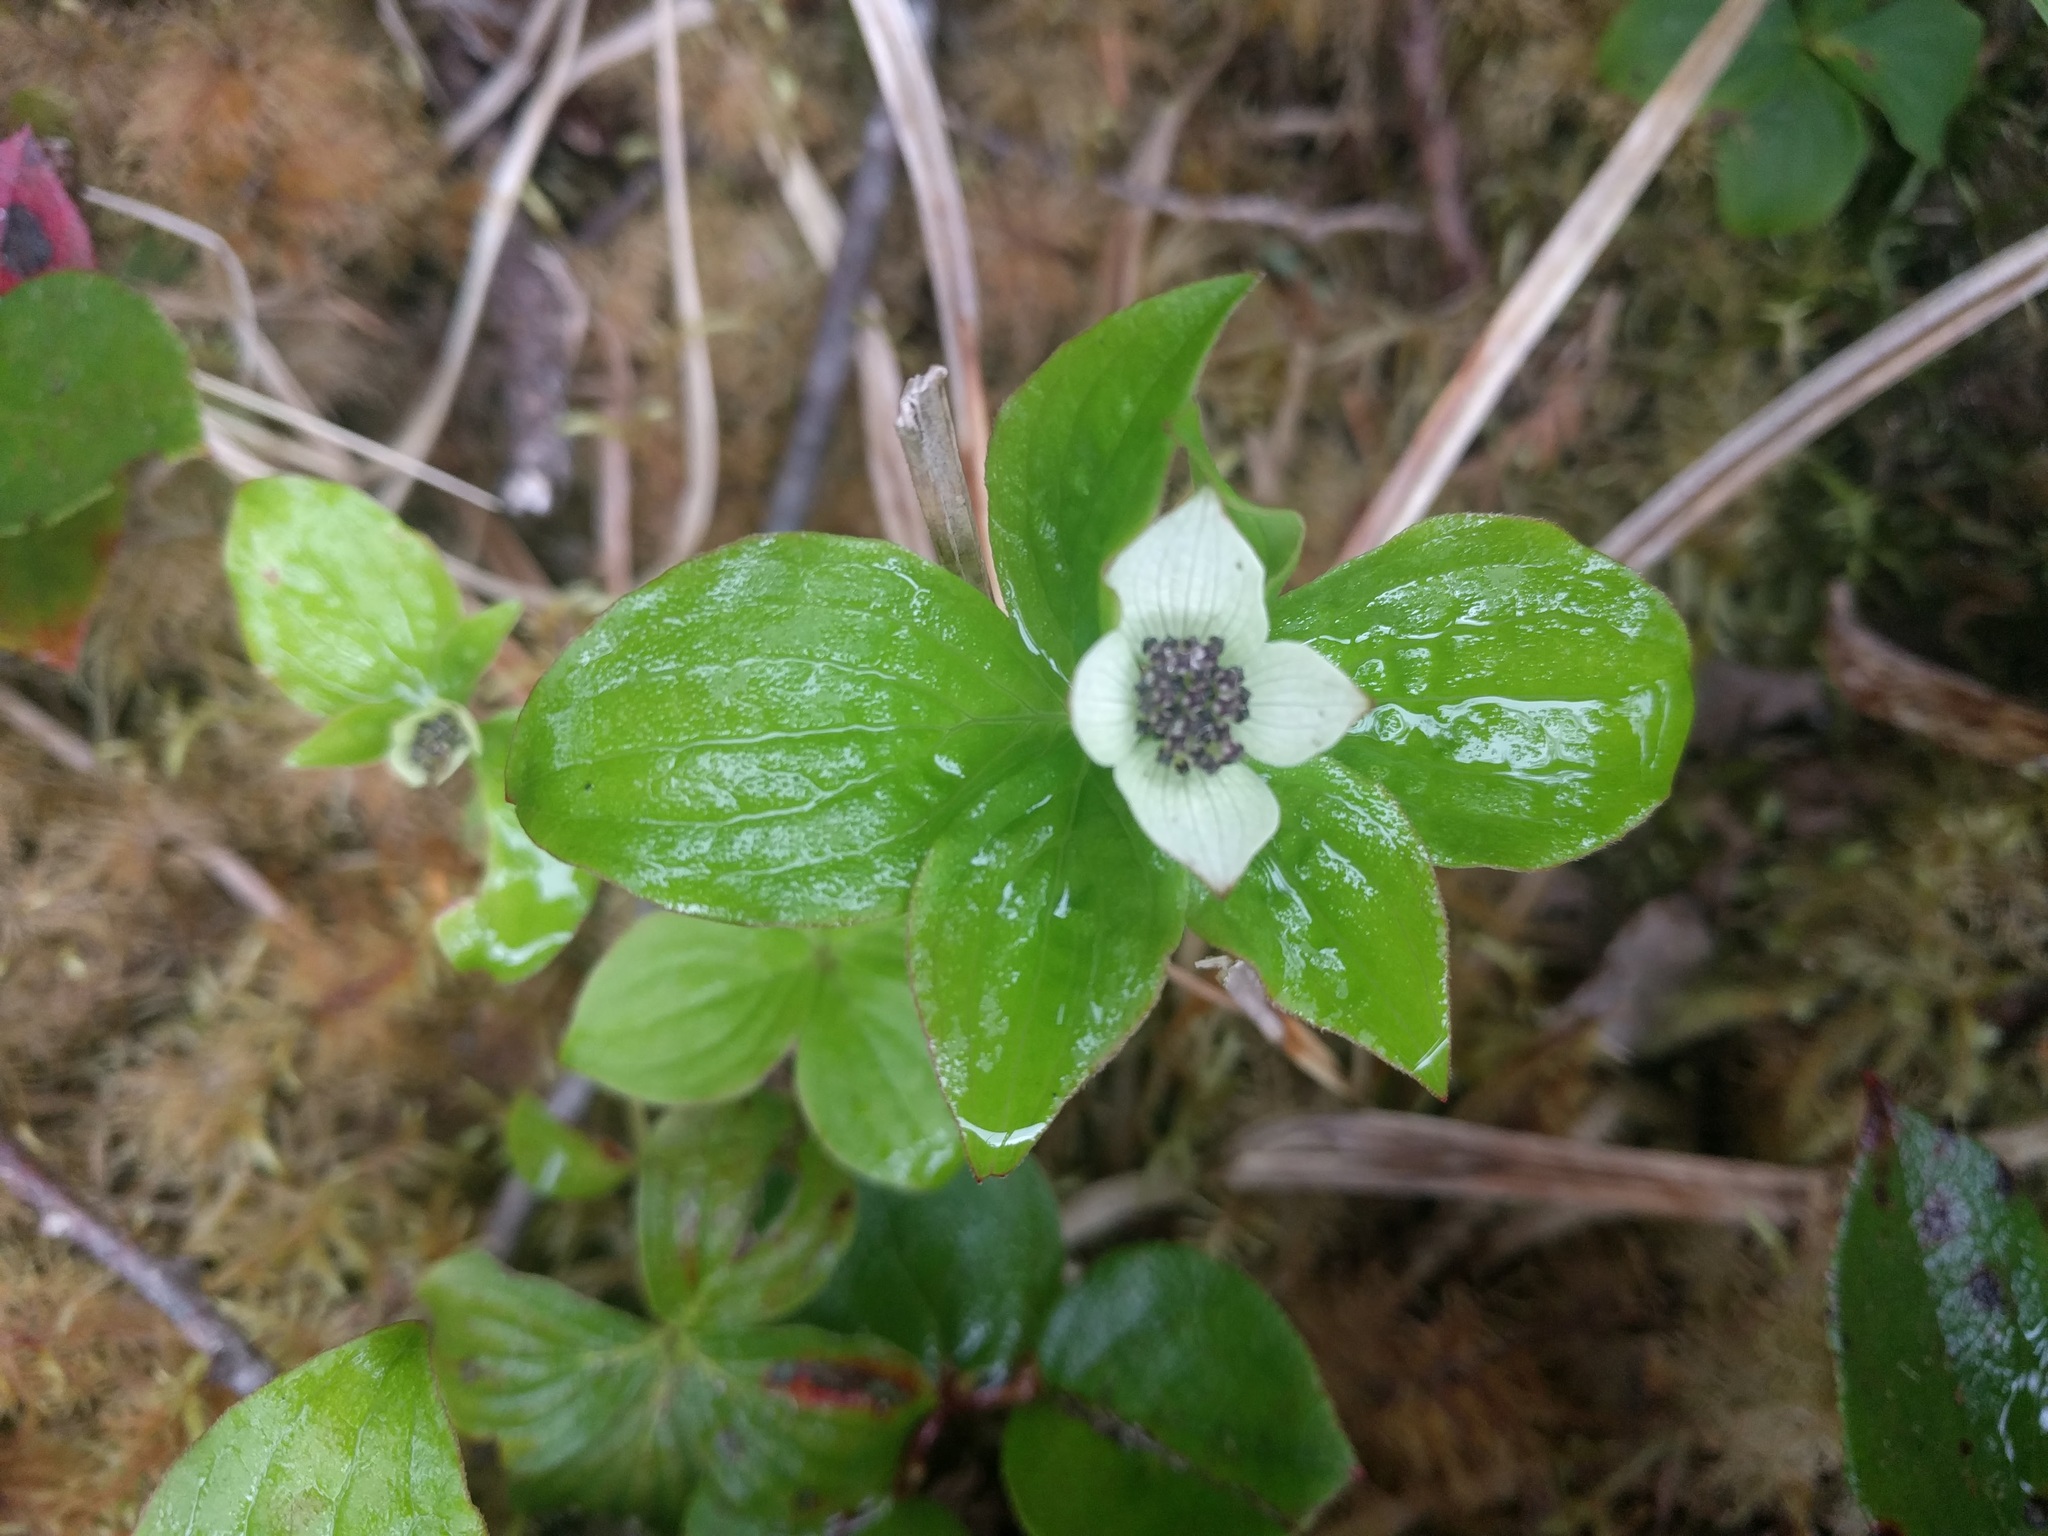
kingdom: Plantae
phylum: Tracheophyta
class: Magnoliopsida
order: Cornales
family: Cornaceae
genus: Cornus
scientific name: Cornus unalaschkensis
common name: Alaska bunchberry
